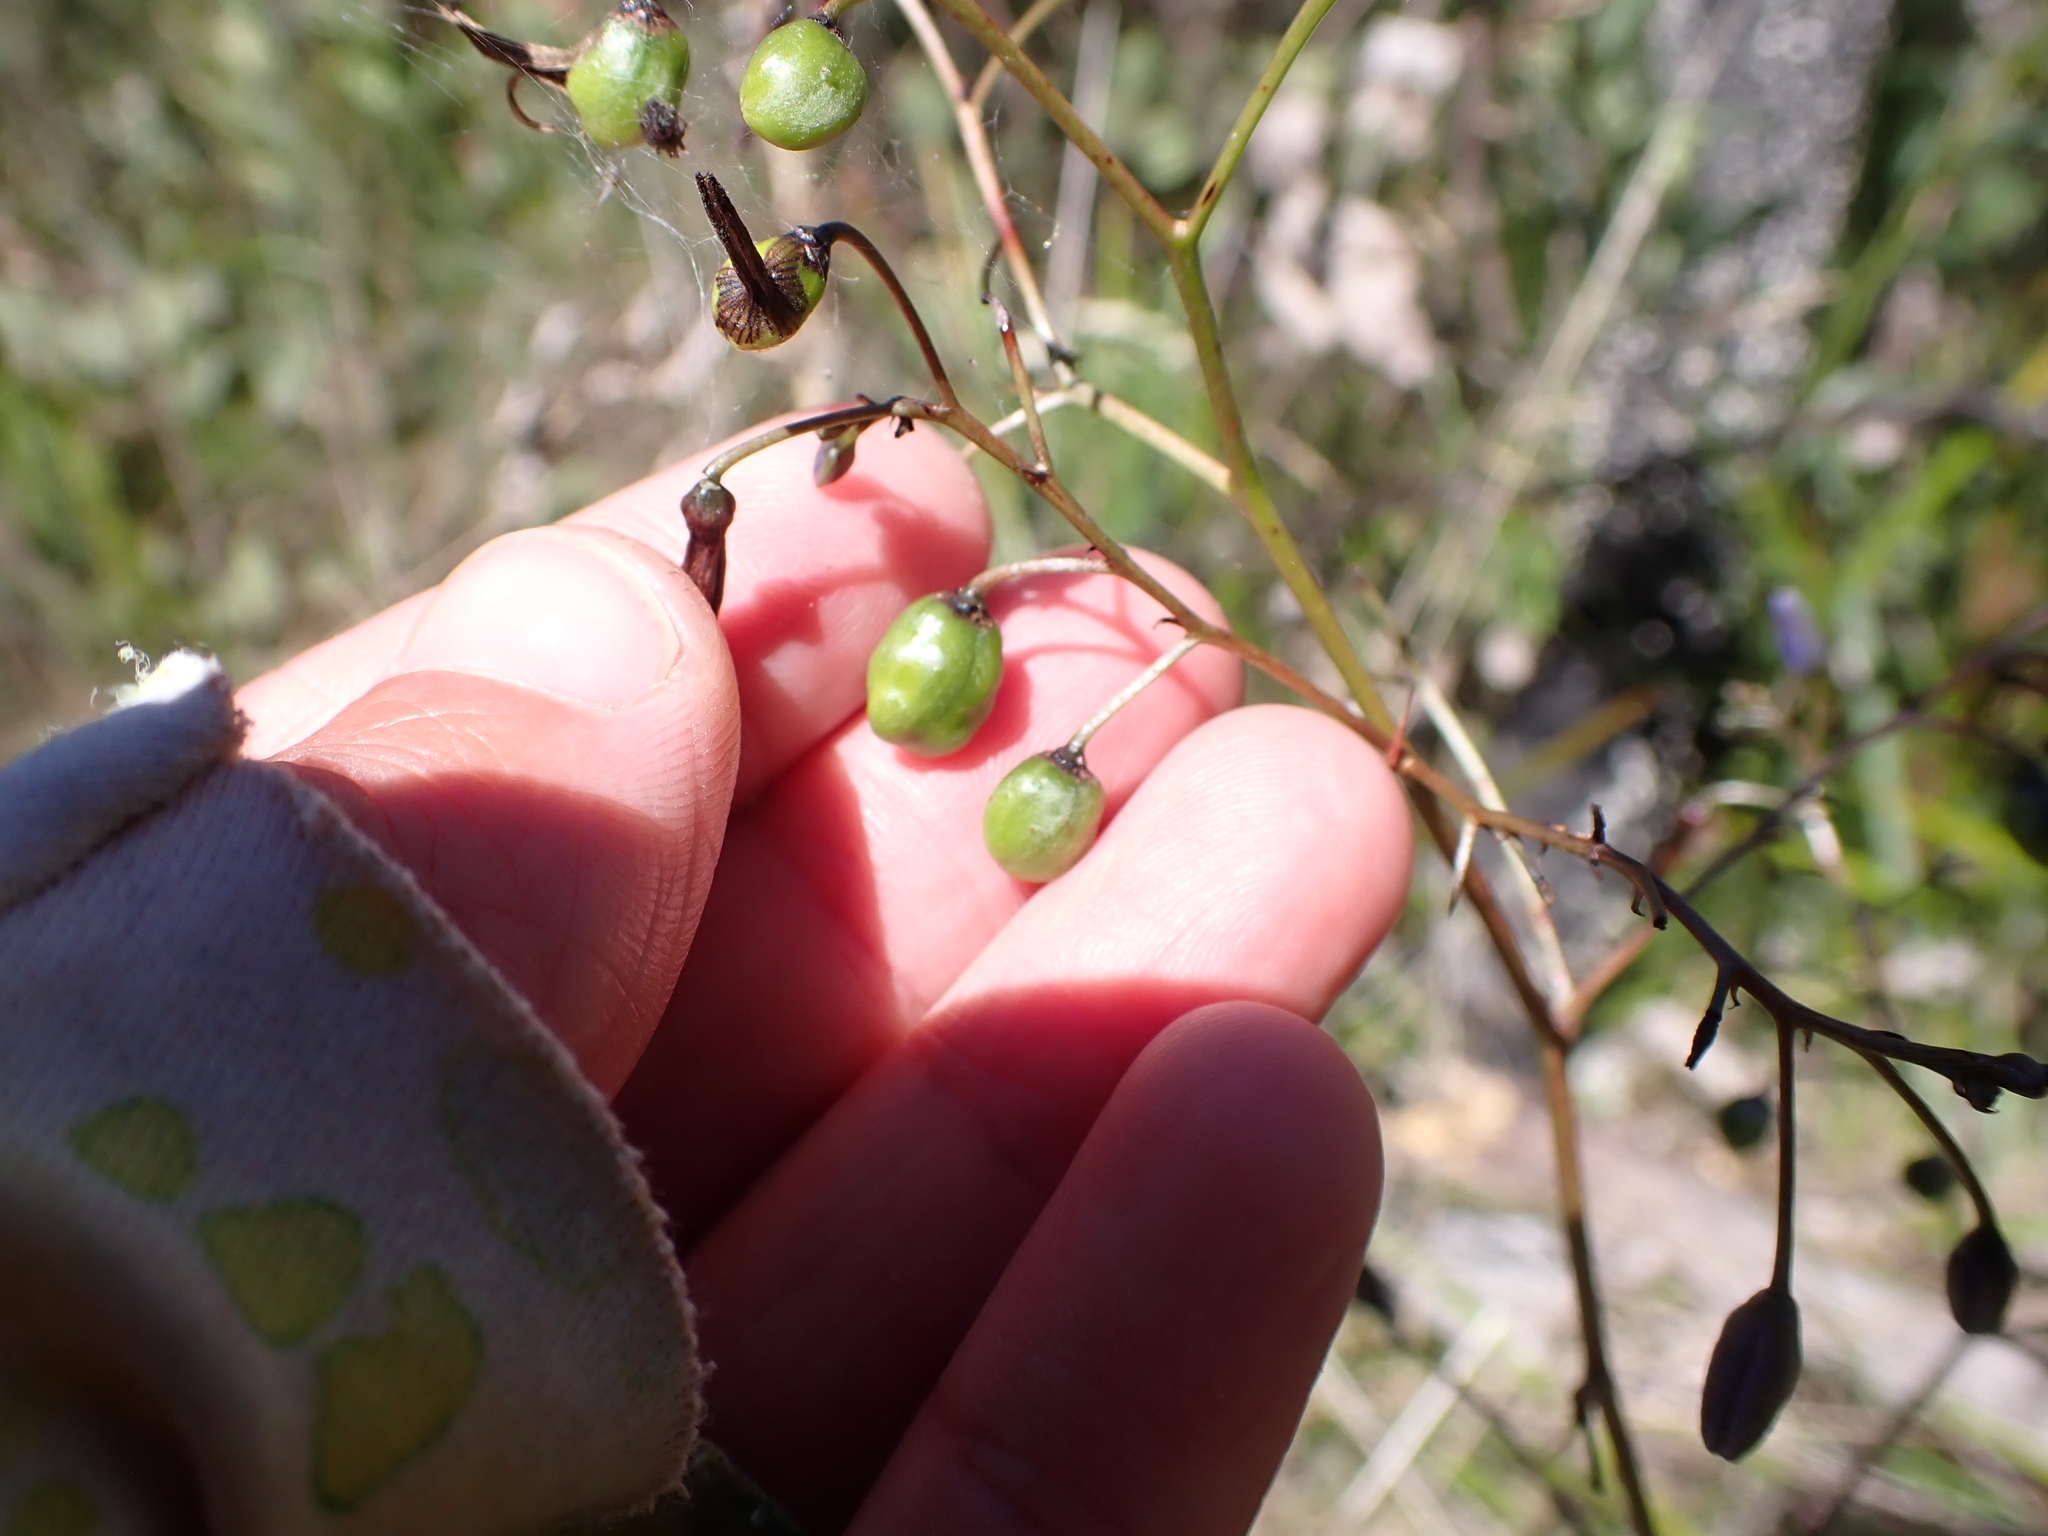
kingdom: Plantae
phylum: Tracheophyta
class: Liliopsida
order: Asparagales
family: Asphodelaceae
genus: Dianella
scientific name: Dianella revoluta
